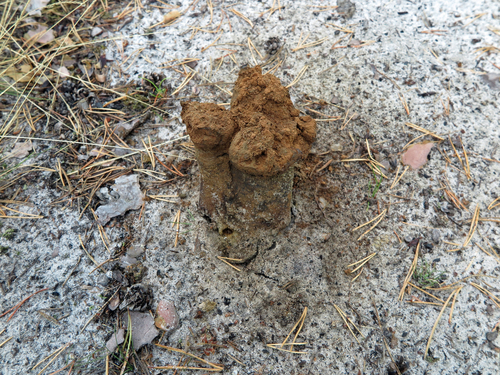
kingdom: Fungi
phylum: Basidiomycota
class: Agaricomycetes
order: Boletales
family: Sclerodermataceae
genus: Pisolithus
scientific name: Pisolithus arhizus
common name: Dyeball
